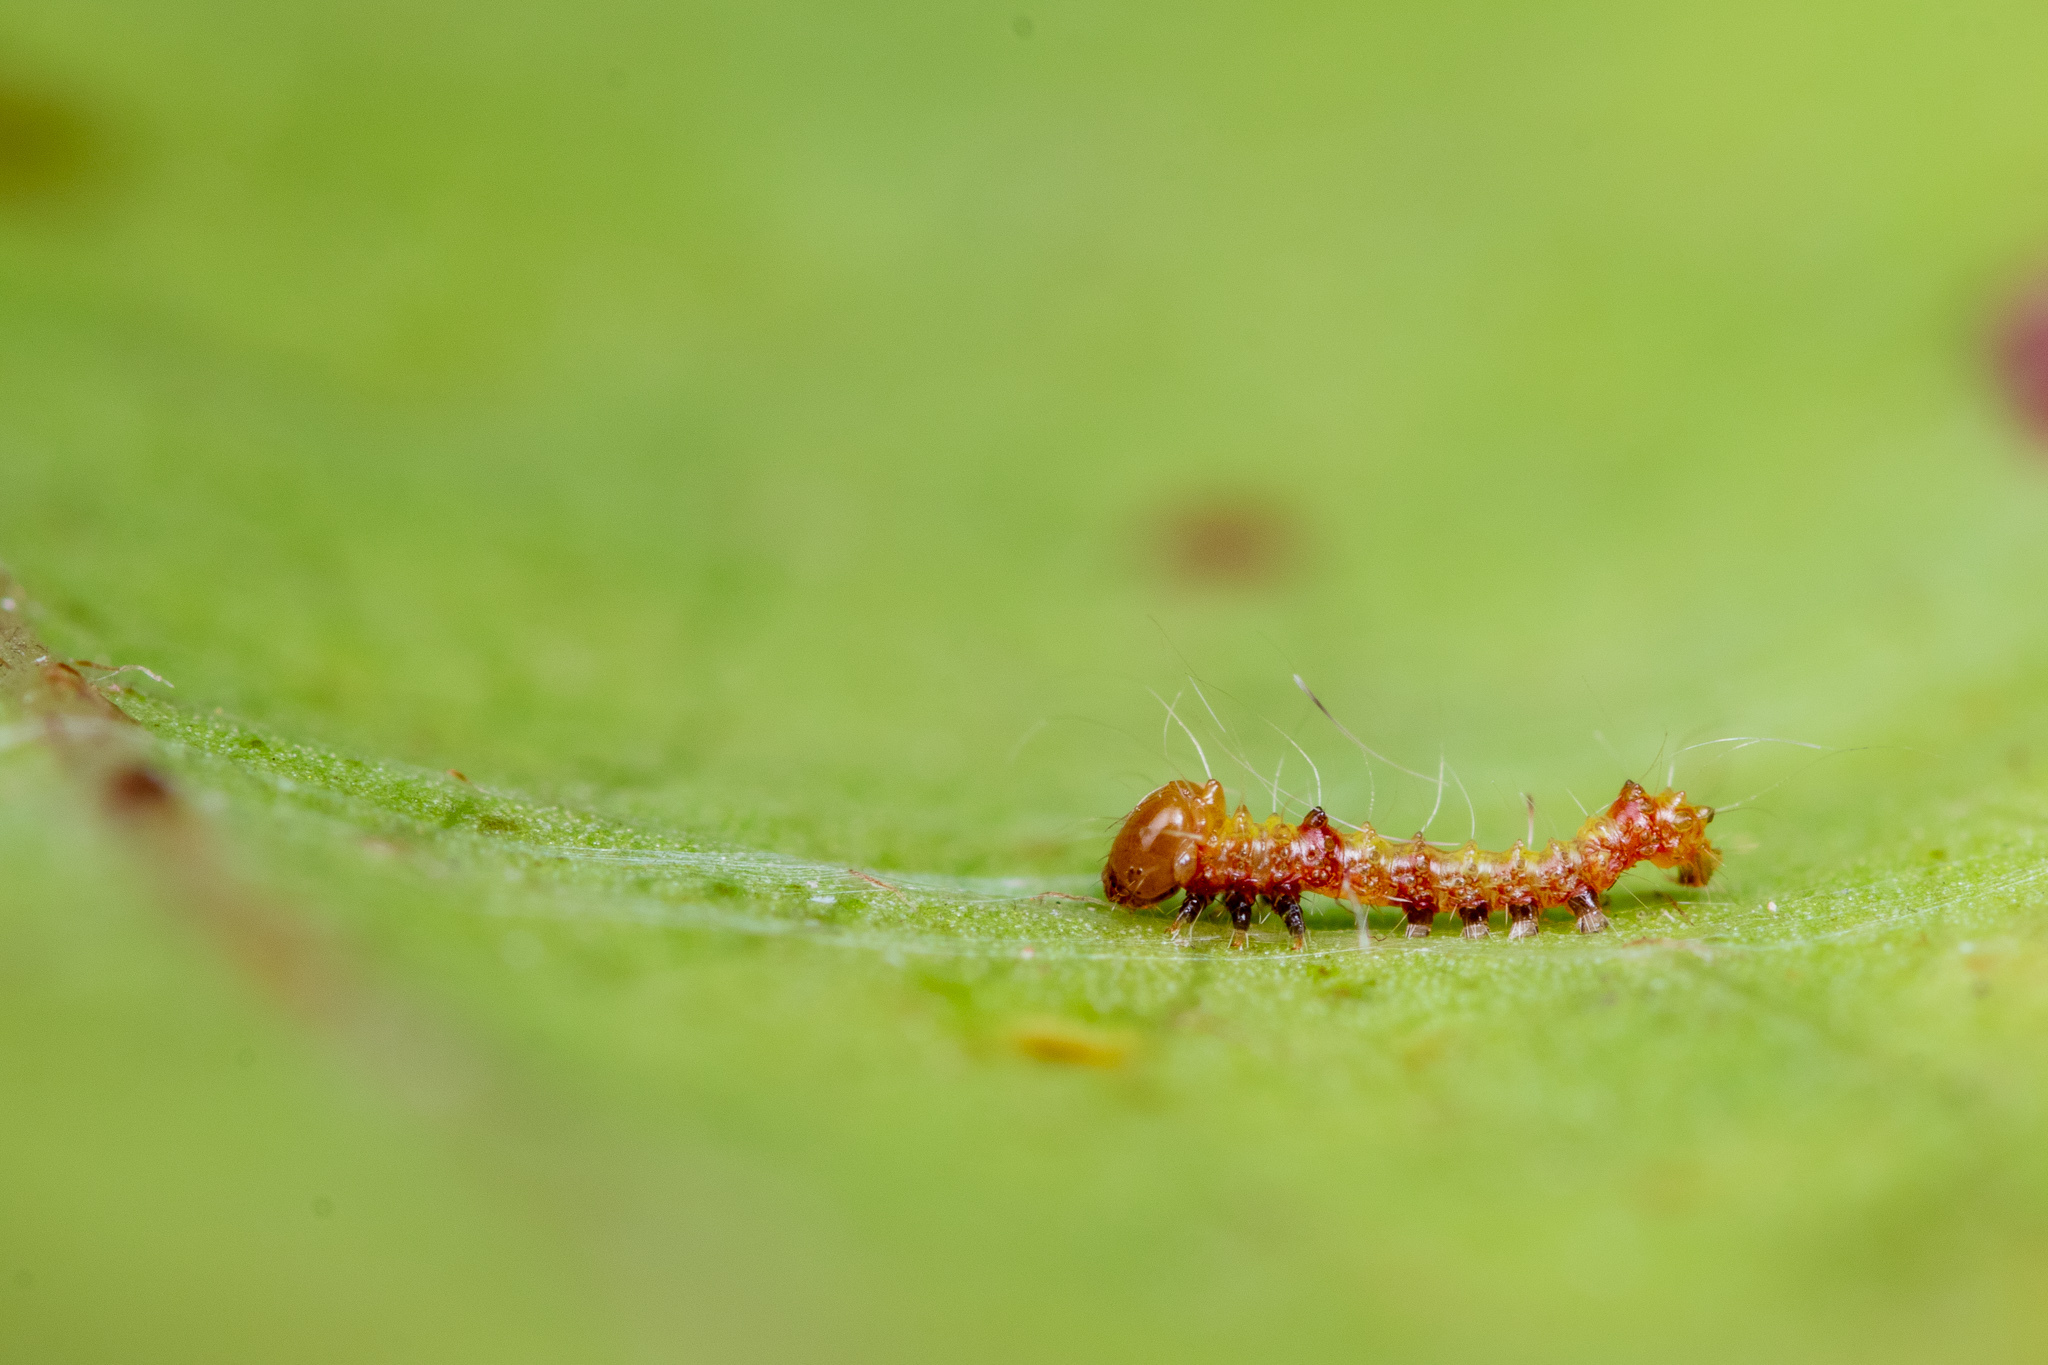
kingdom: Animalia
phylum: Arthropoda
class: Insecta
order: Lepidoptera
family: Notodontidae
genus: Oligocentria
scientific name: Oligocentria Ianassa lignicolor
